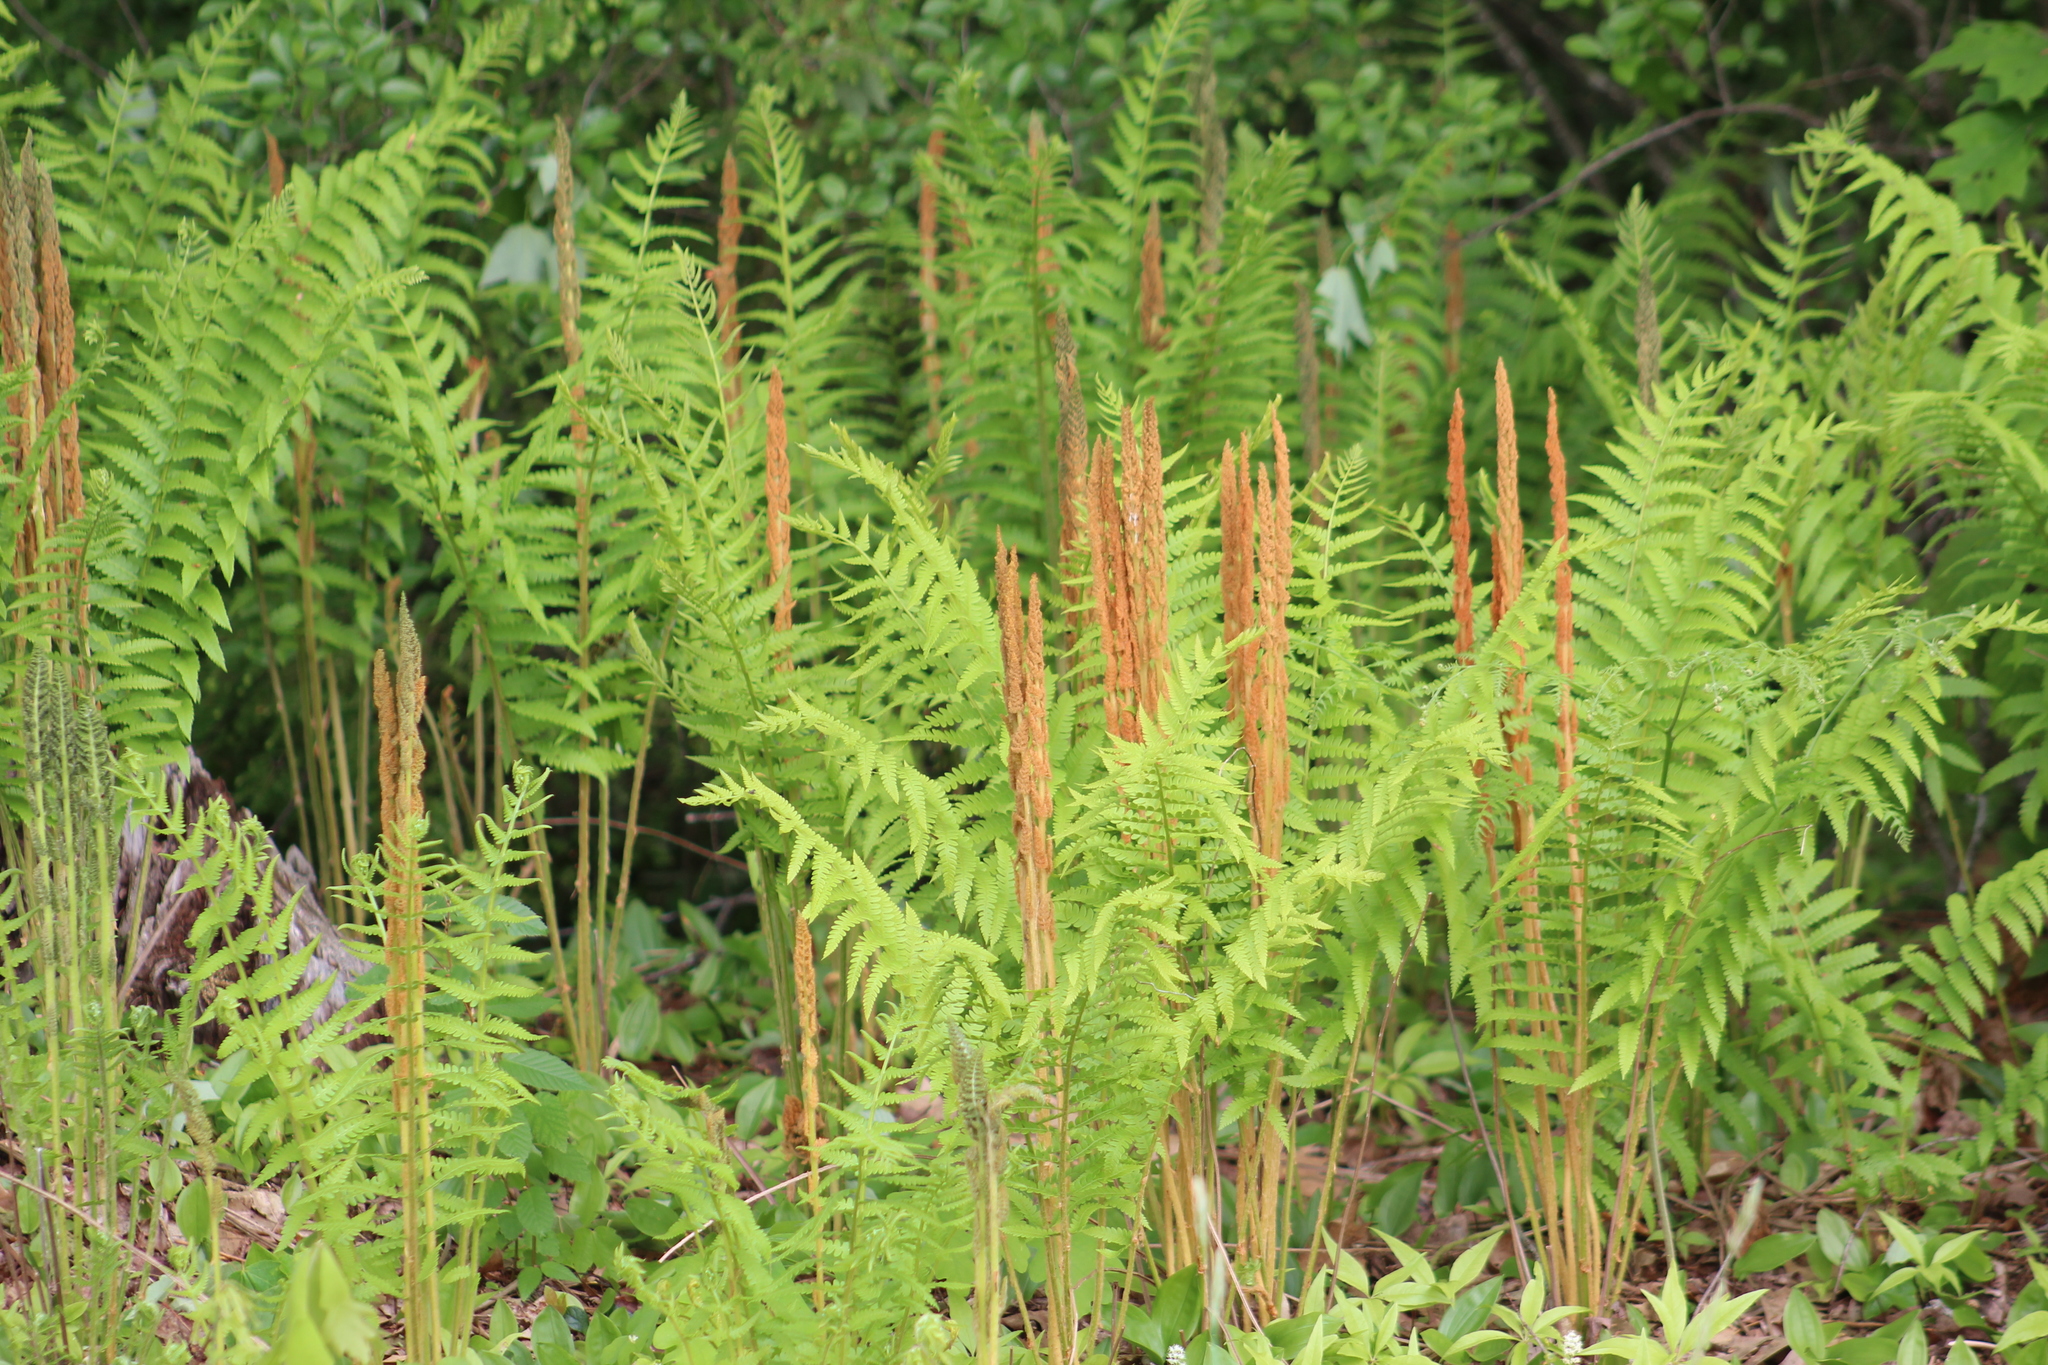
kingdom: Plantae
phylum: Tracheophyta
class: Polypodiopsida
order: Osmundales
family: Osmundaceae
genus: Osmundastrum
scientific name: Osmundastrum cinnamomeum
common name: Cinnamon fern
